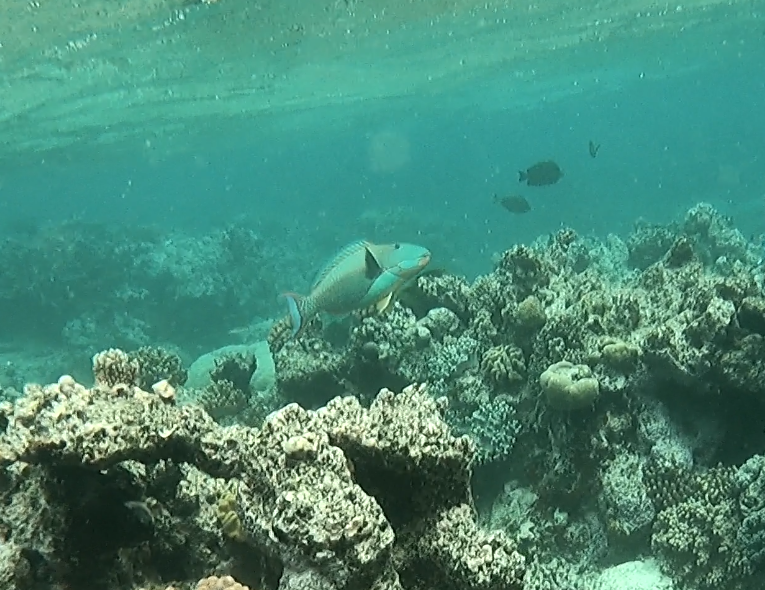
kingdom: Animalia
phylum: Chordata
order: Perciformes
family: Scaridae
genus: Cetoscarus
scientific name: Cetoscarus ocellatus
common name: Bicolor parrotfish
